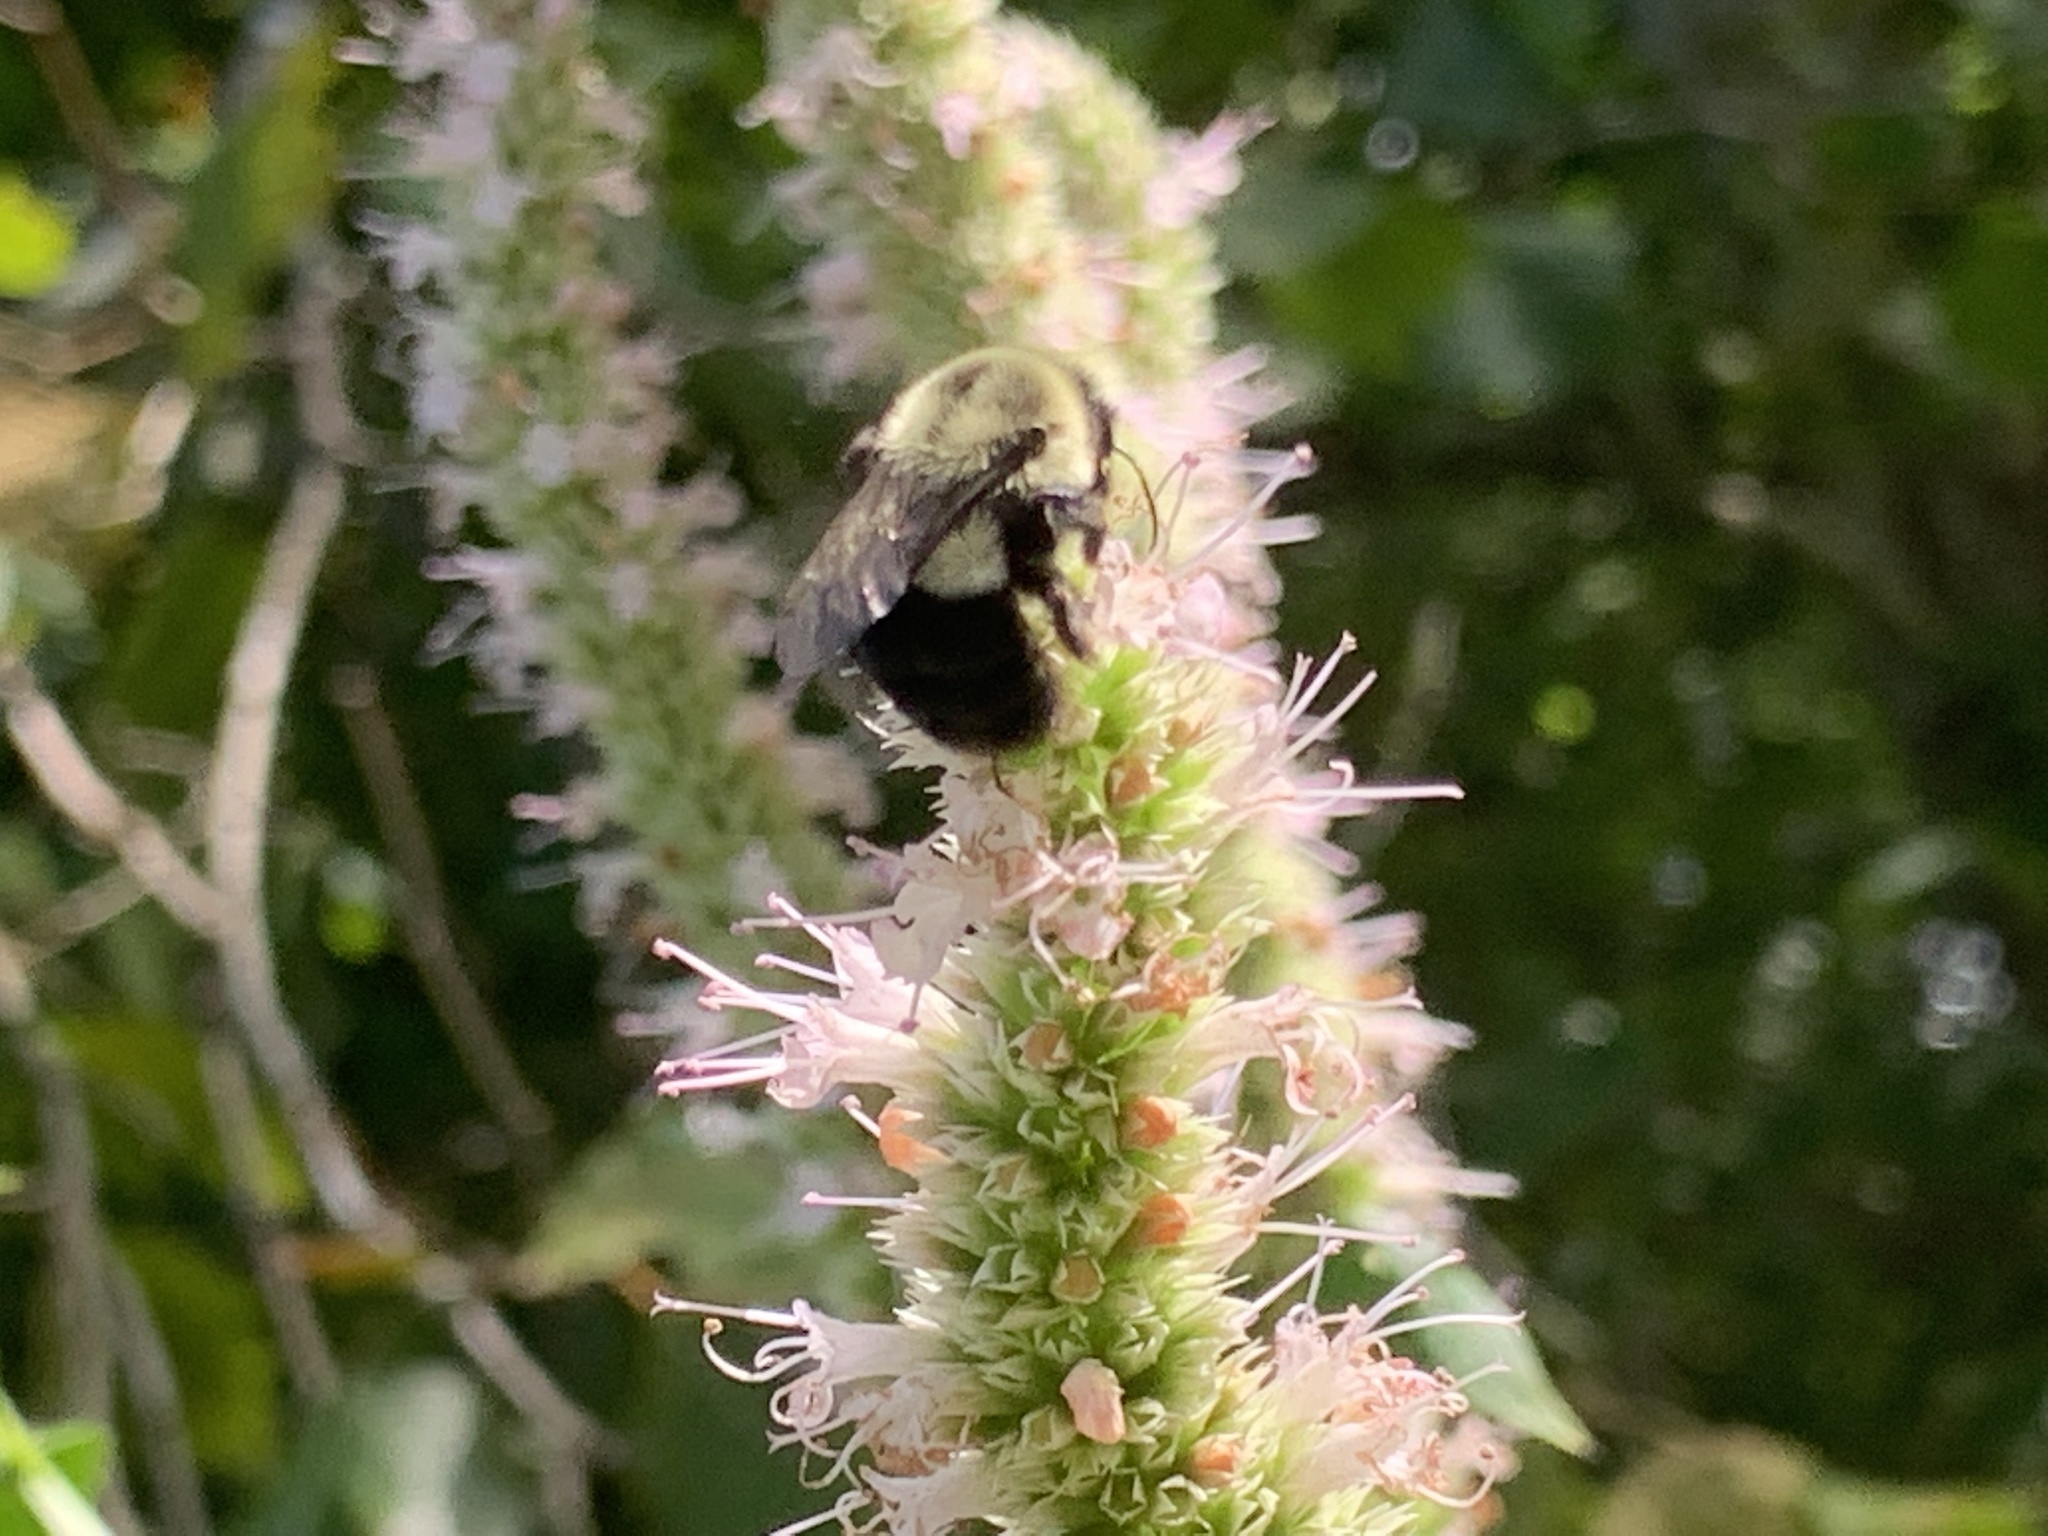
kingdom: Animalia
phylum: Arthropoda
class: Insecta
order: Hymenoptera
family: Apidae
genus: Bombus
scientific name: Bombus impatiens
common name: Common eastern bumble bee
